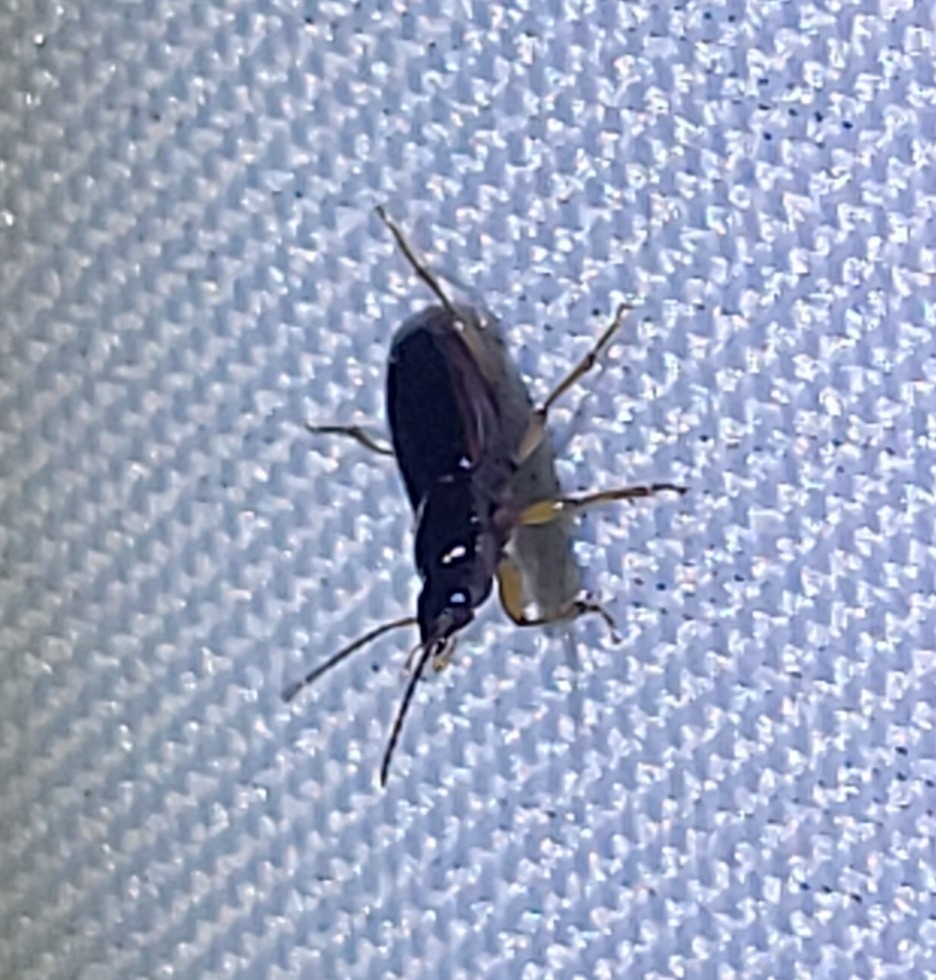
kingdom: Animalia
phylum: Arthropoda
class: Insecta
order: Coleoptera
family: Carabidae
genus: Stenolophus
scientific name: Stenolophus ochropezus
